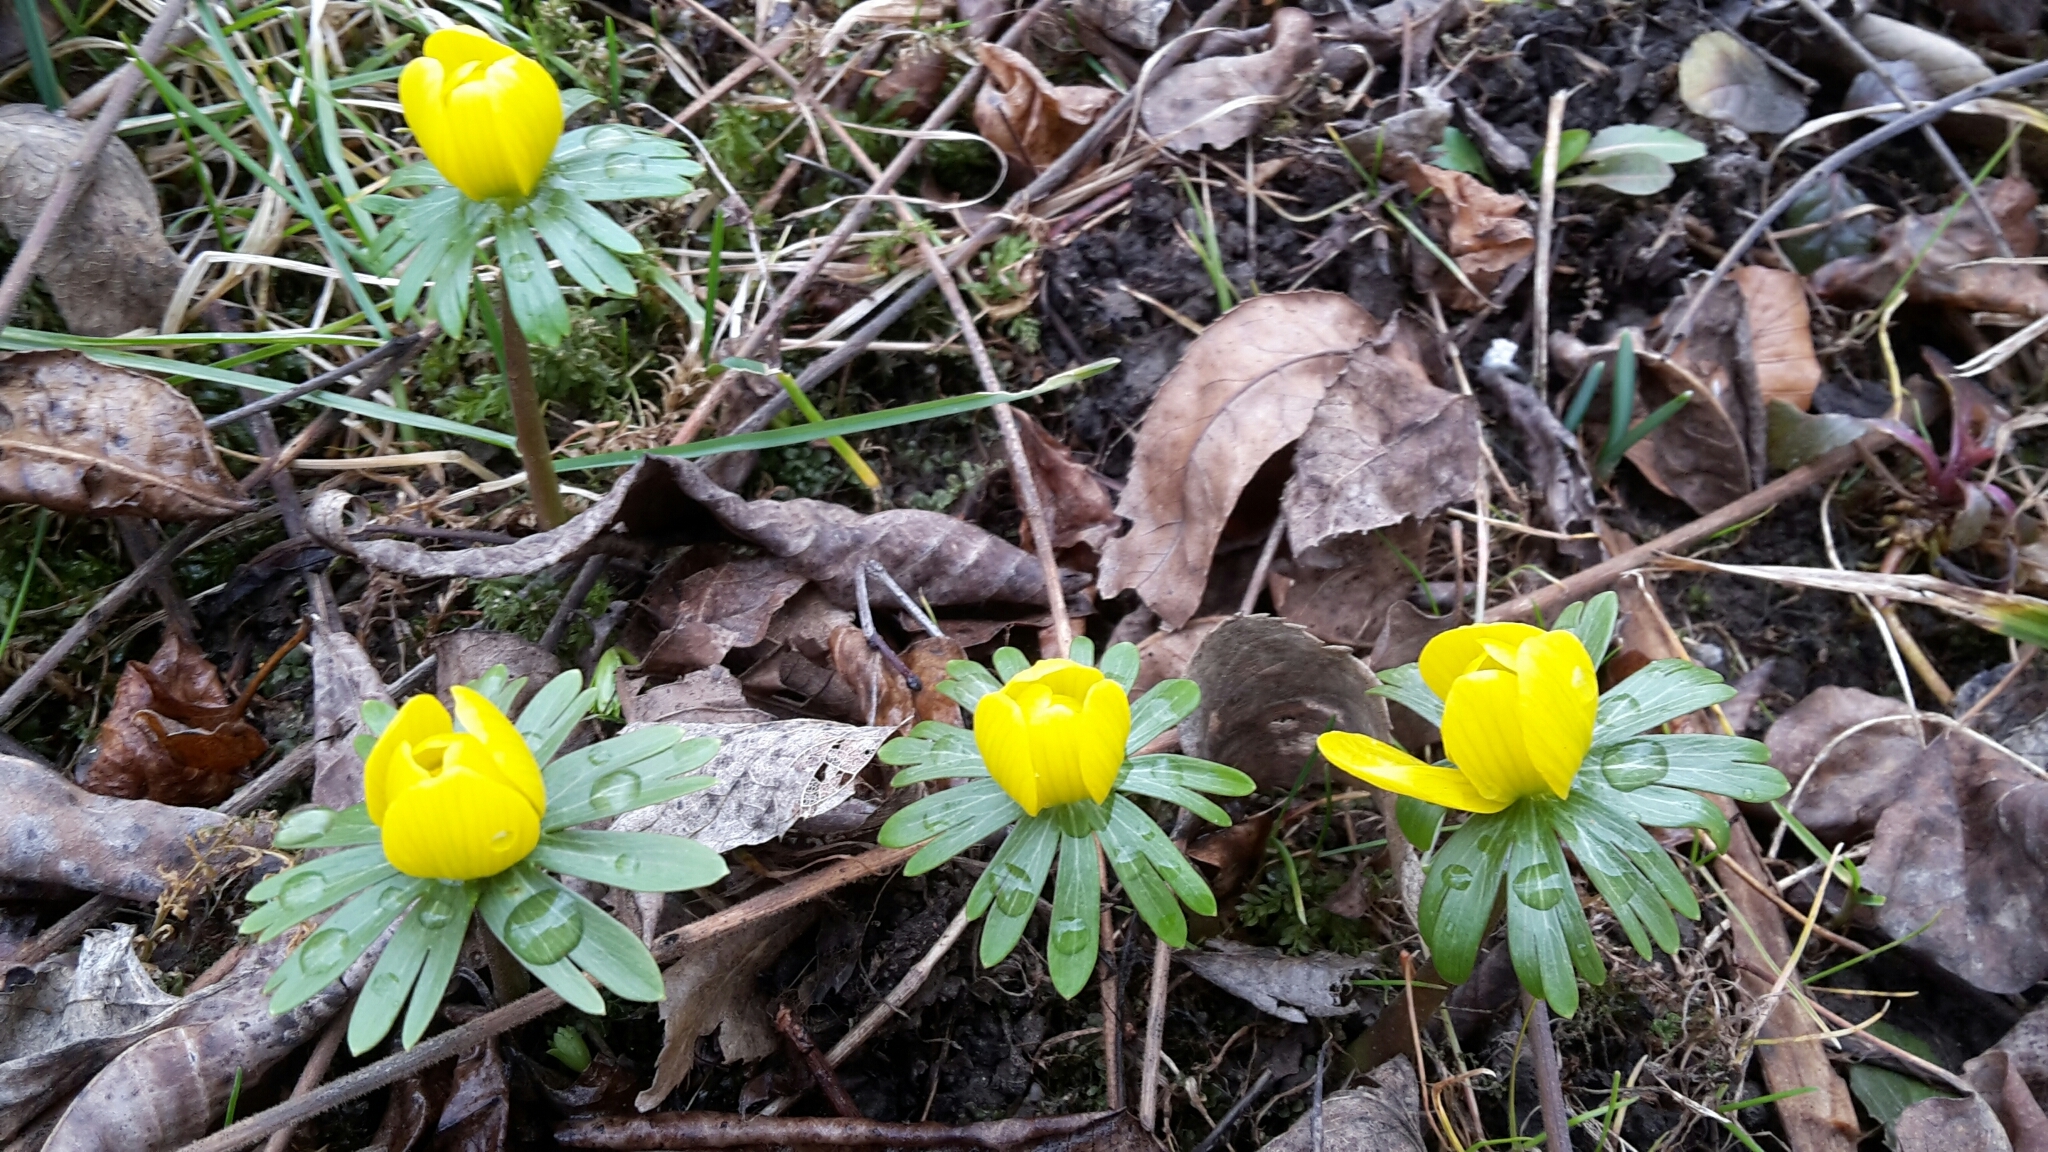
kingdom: Plantae
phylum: Tracheophyta
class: Magnoliopsida
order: Ranunculales
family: Ranunculaceae
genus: Eranthis
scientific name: Eranthis hyemalis
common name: Winter aconite
